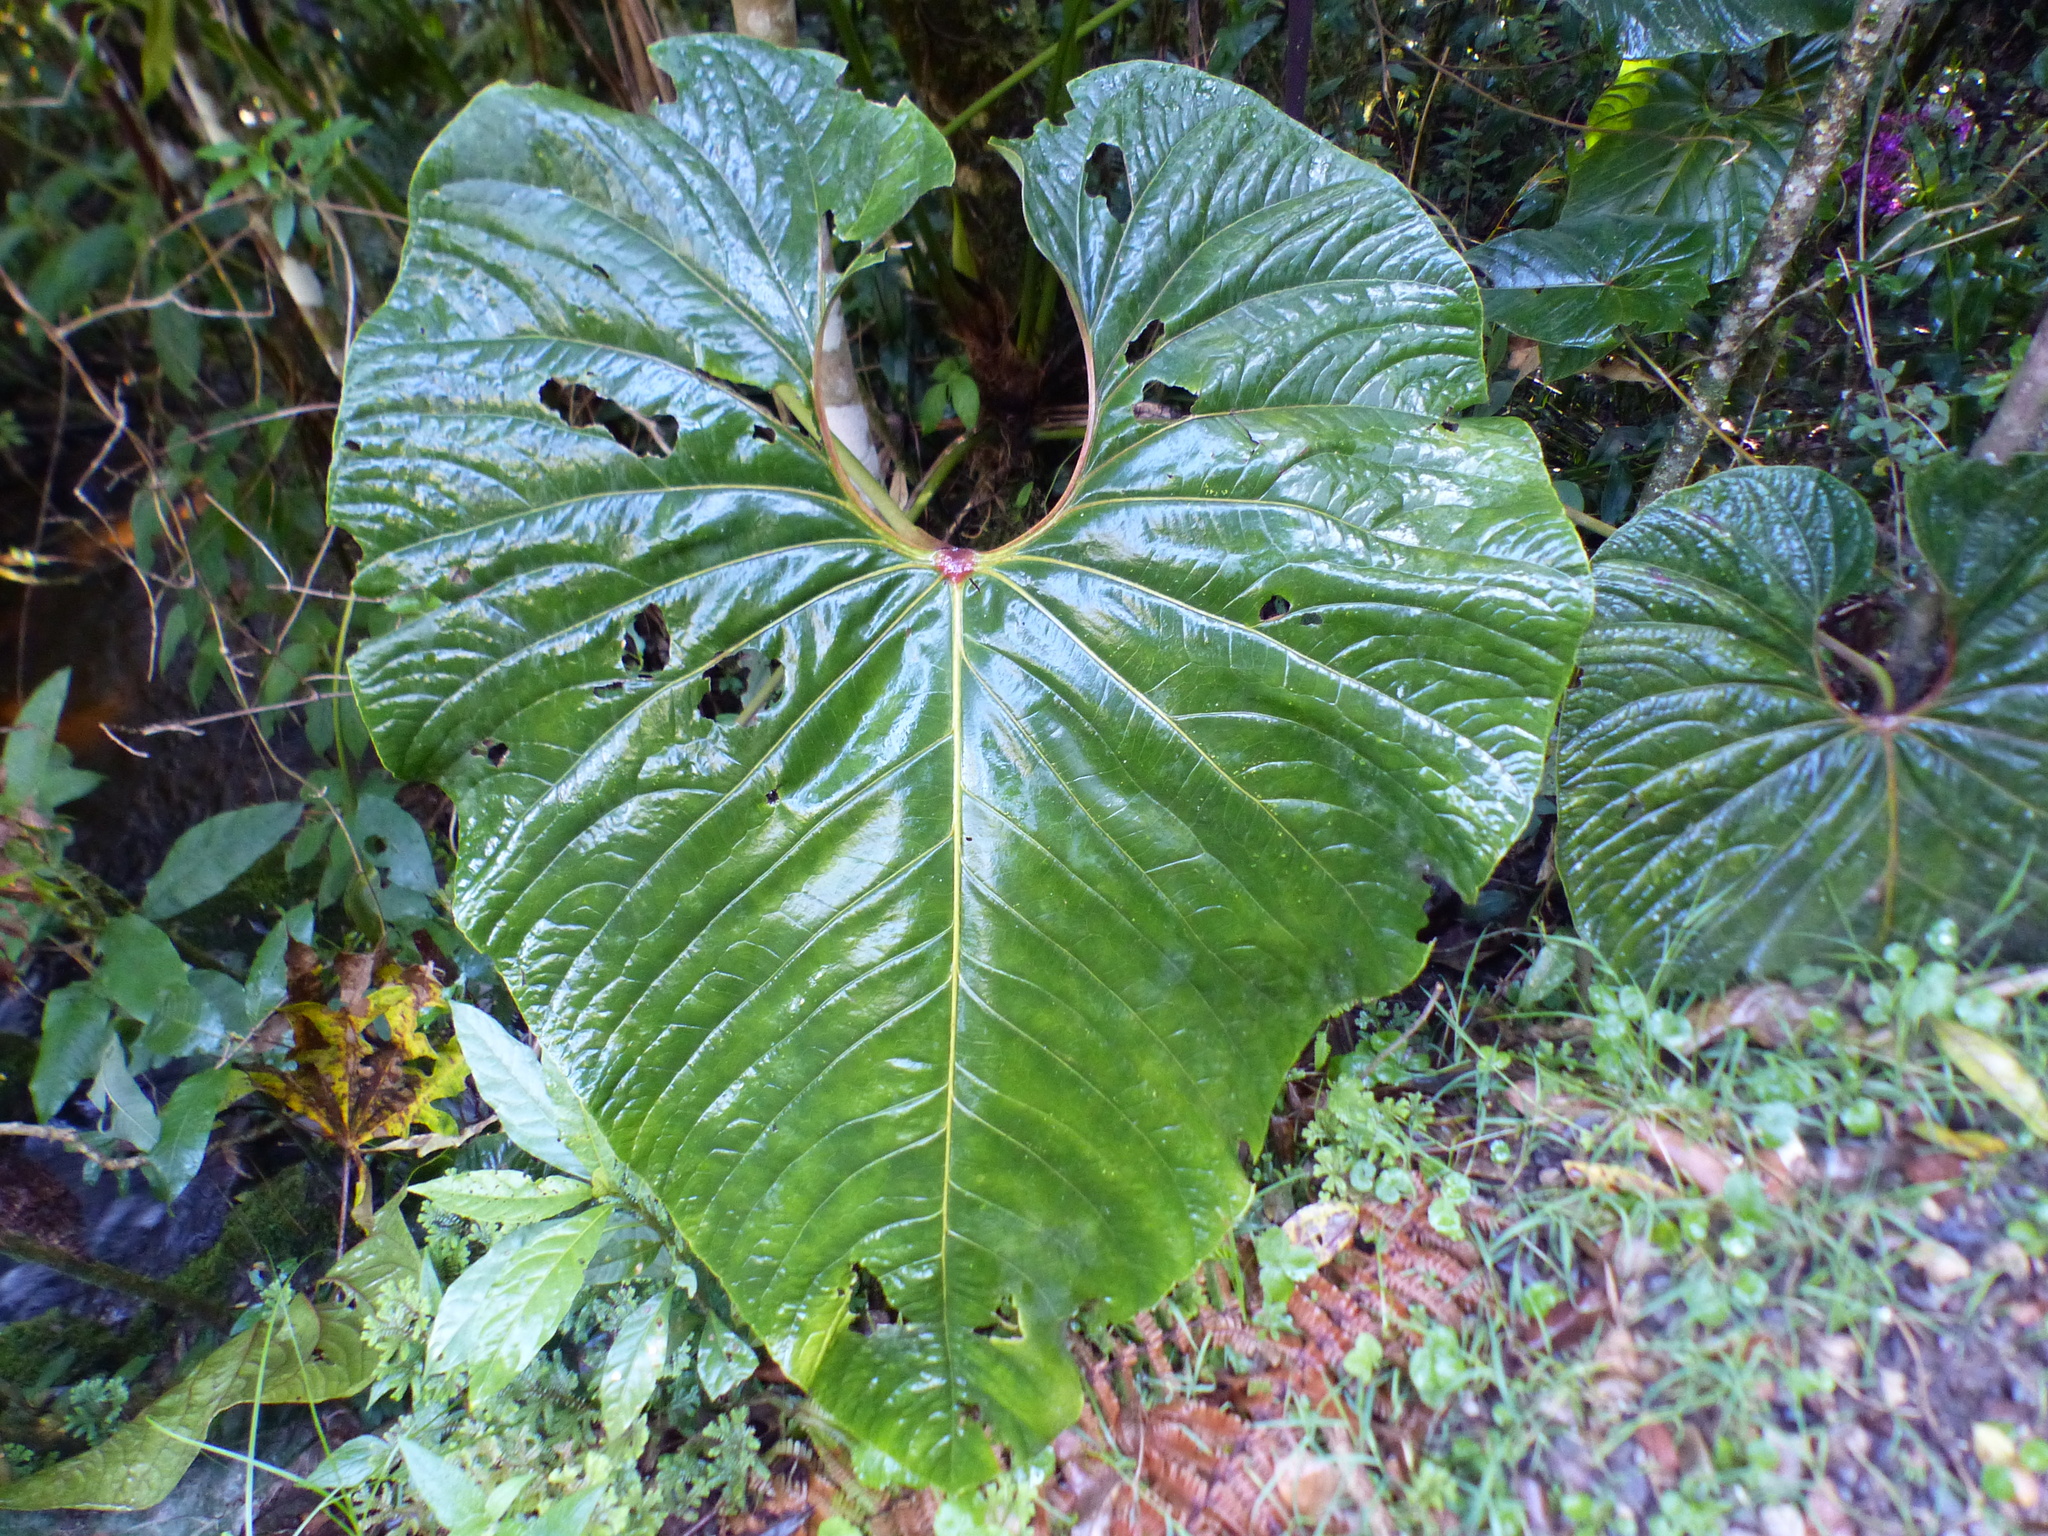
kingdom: Plantae
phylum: Tracheophyta
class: Liliopsida
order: Alismatales
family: Araceae
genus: Anthurium
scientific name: Anthurium giganteum
